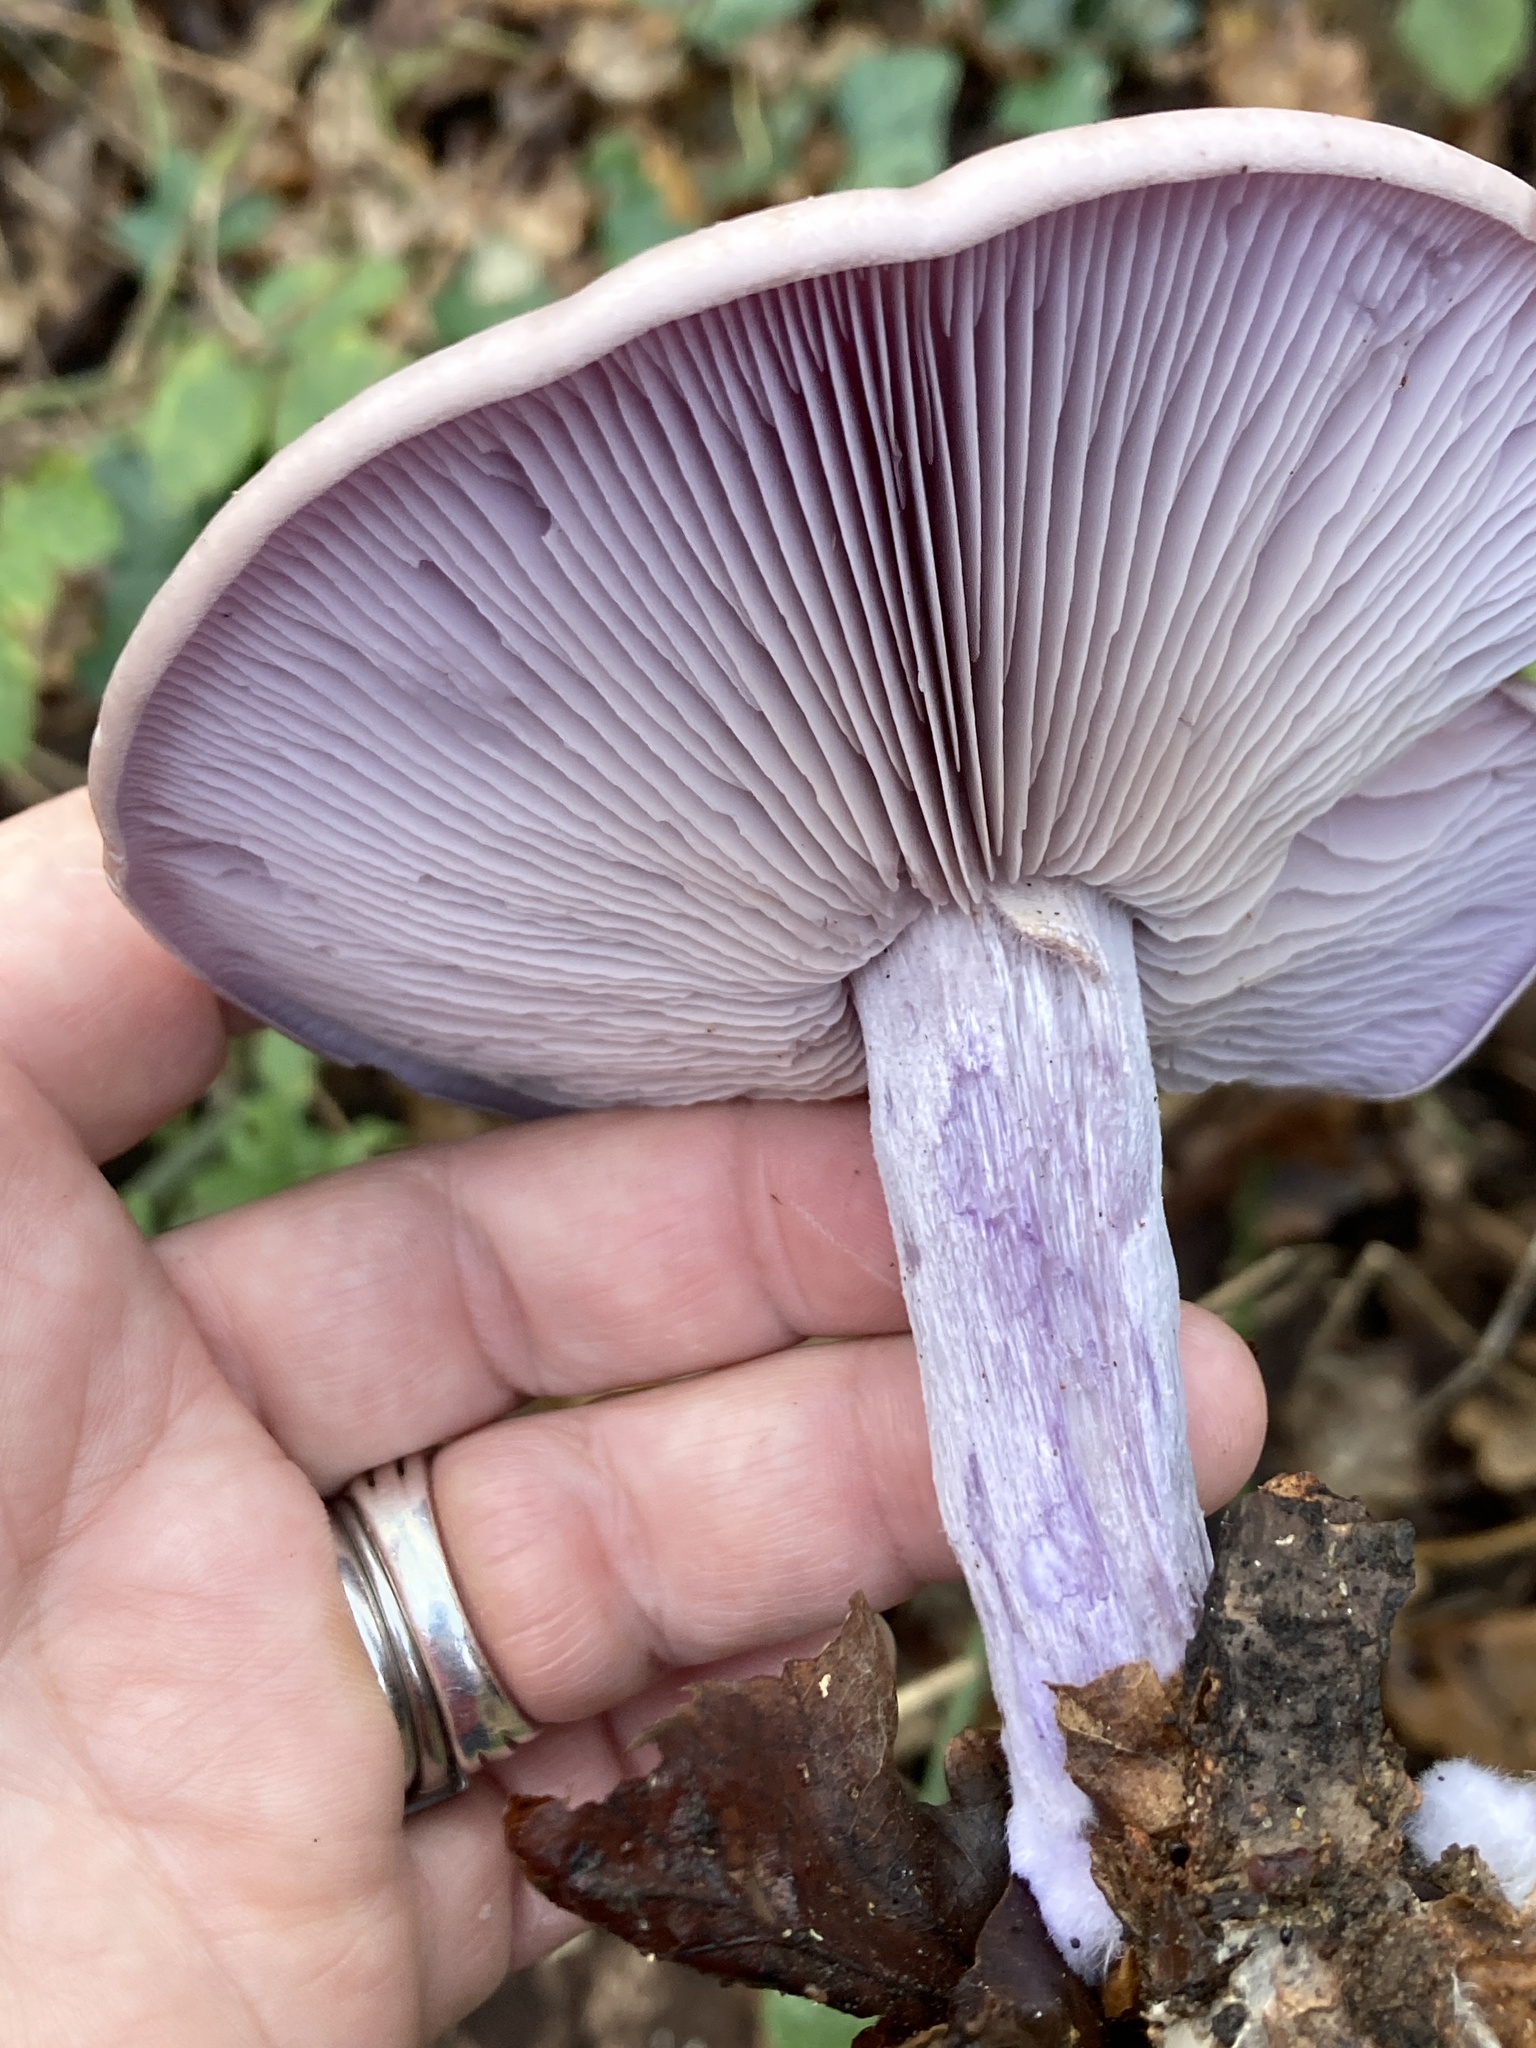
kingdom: Fungi
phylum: Basidiomycota
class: Agaricomycetes
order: Agaricales
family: Tricholomataceae
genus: Collybia
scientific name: Collybia
